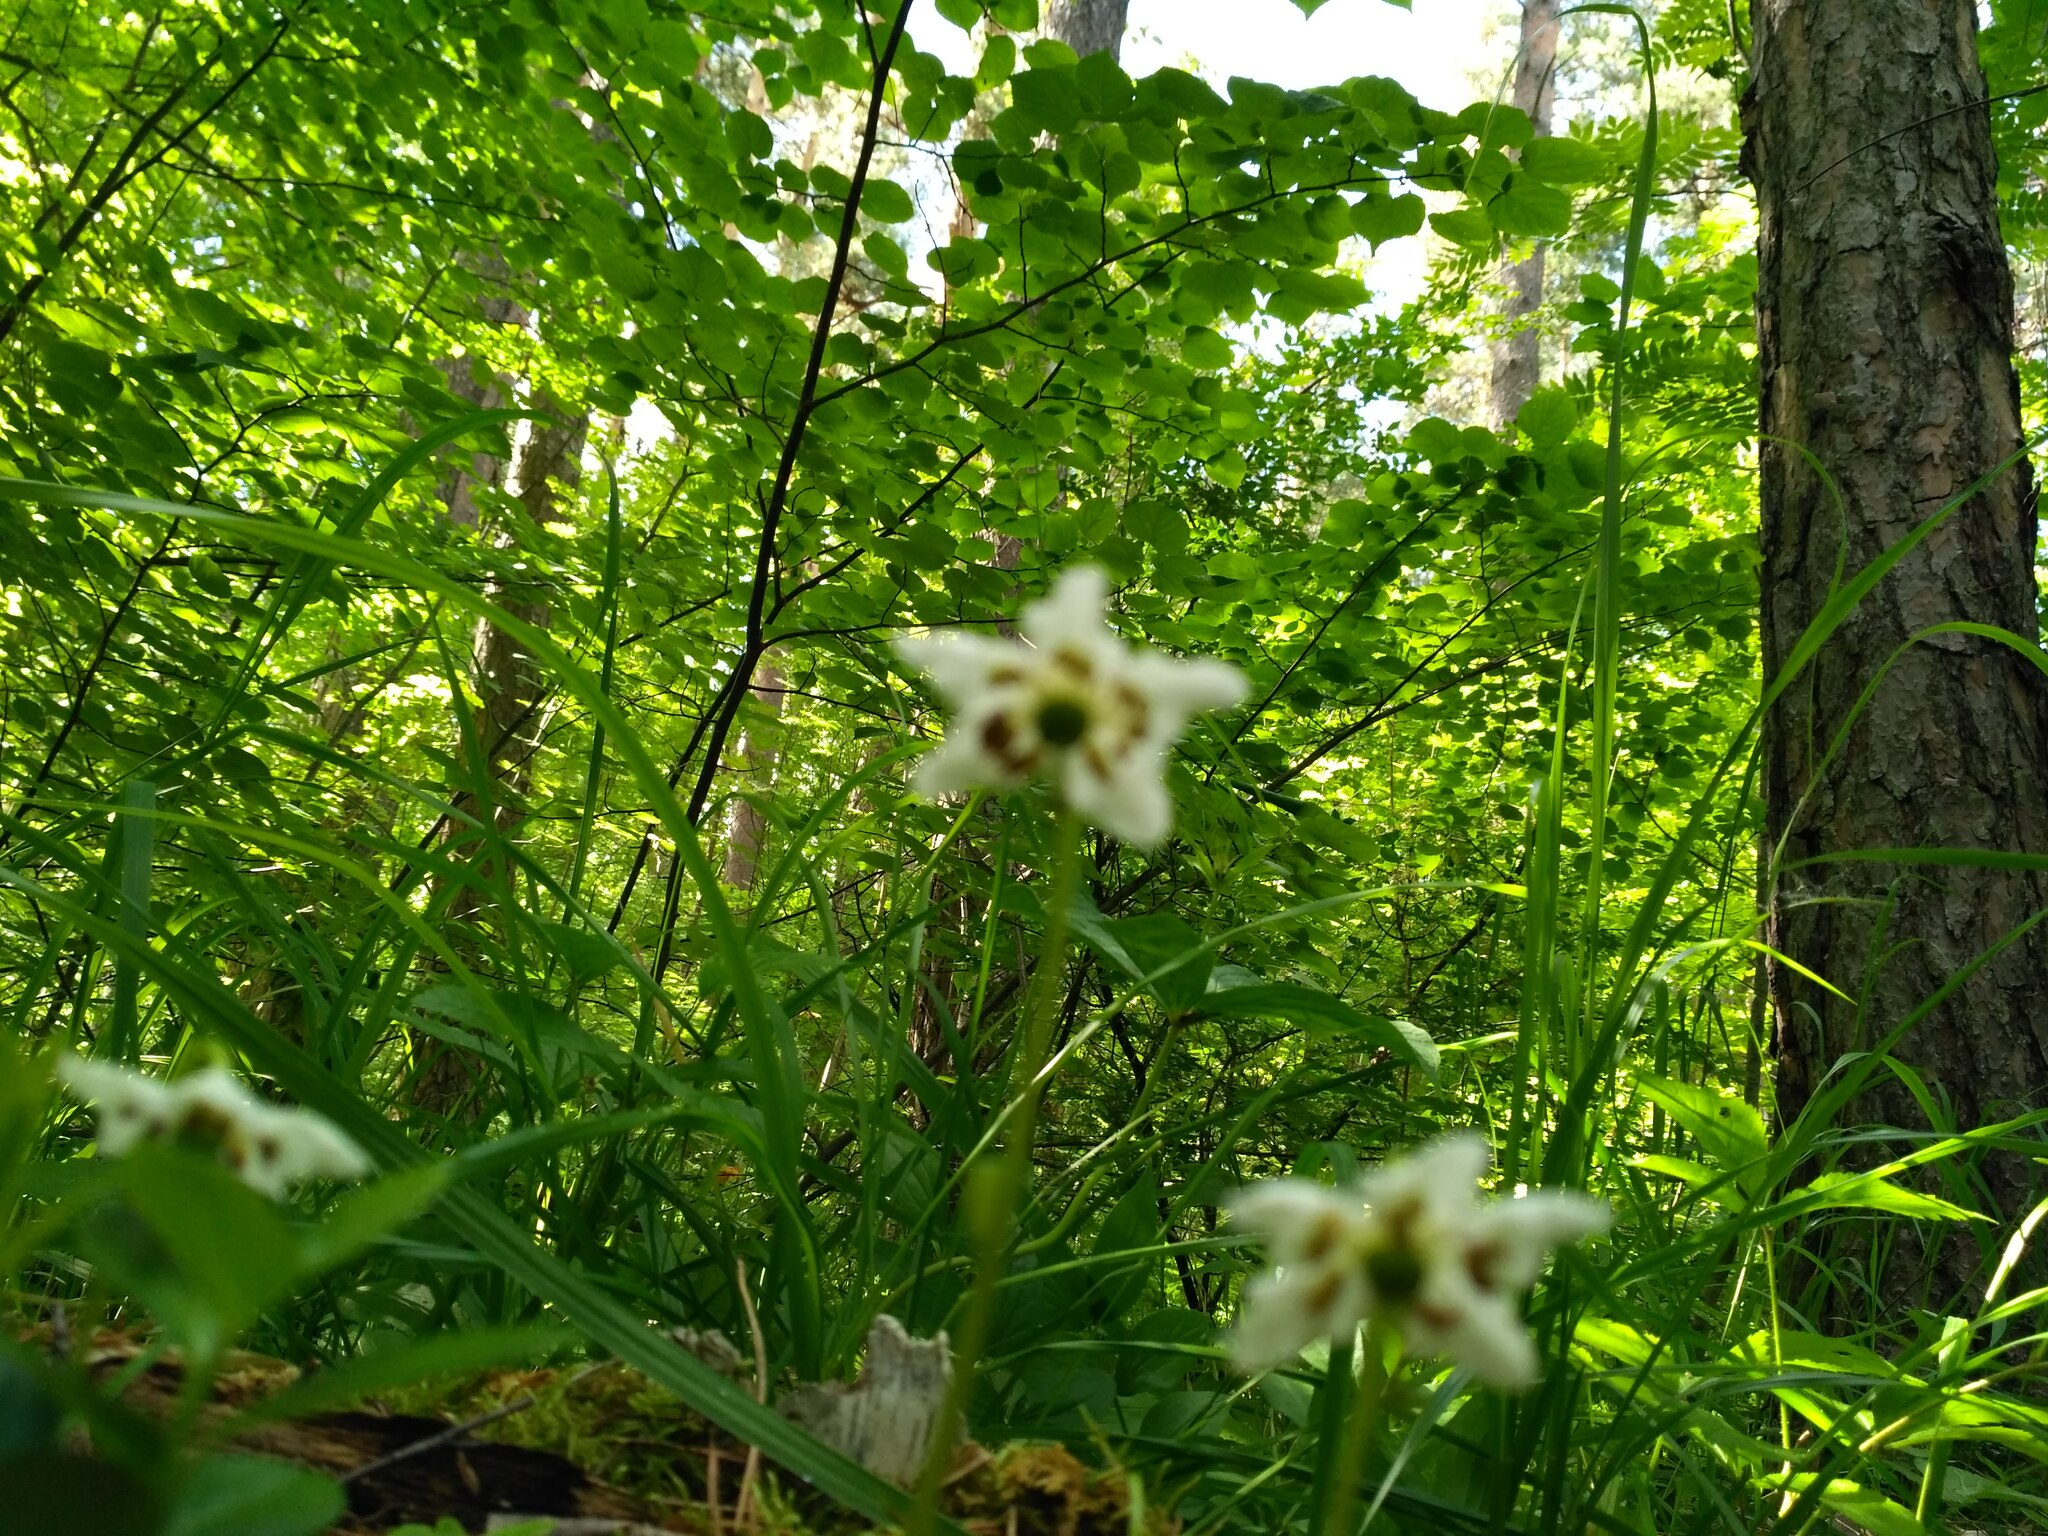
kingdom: Plantae
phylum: Tracheophyta
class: Magnoliopsida
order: Ericales
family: Ericaceae
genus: Moneses
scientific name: Moneses uniflora
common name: One-flowered wintergreen
